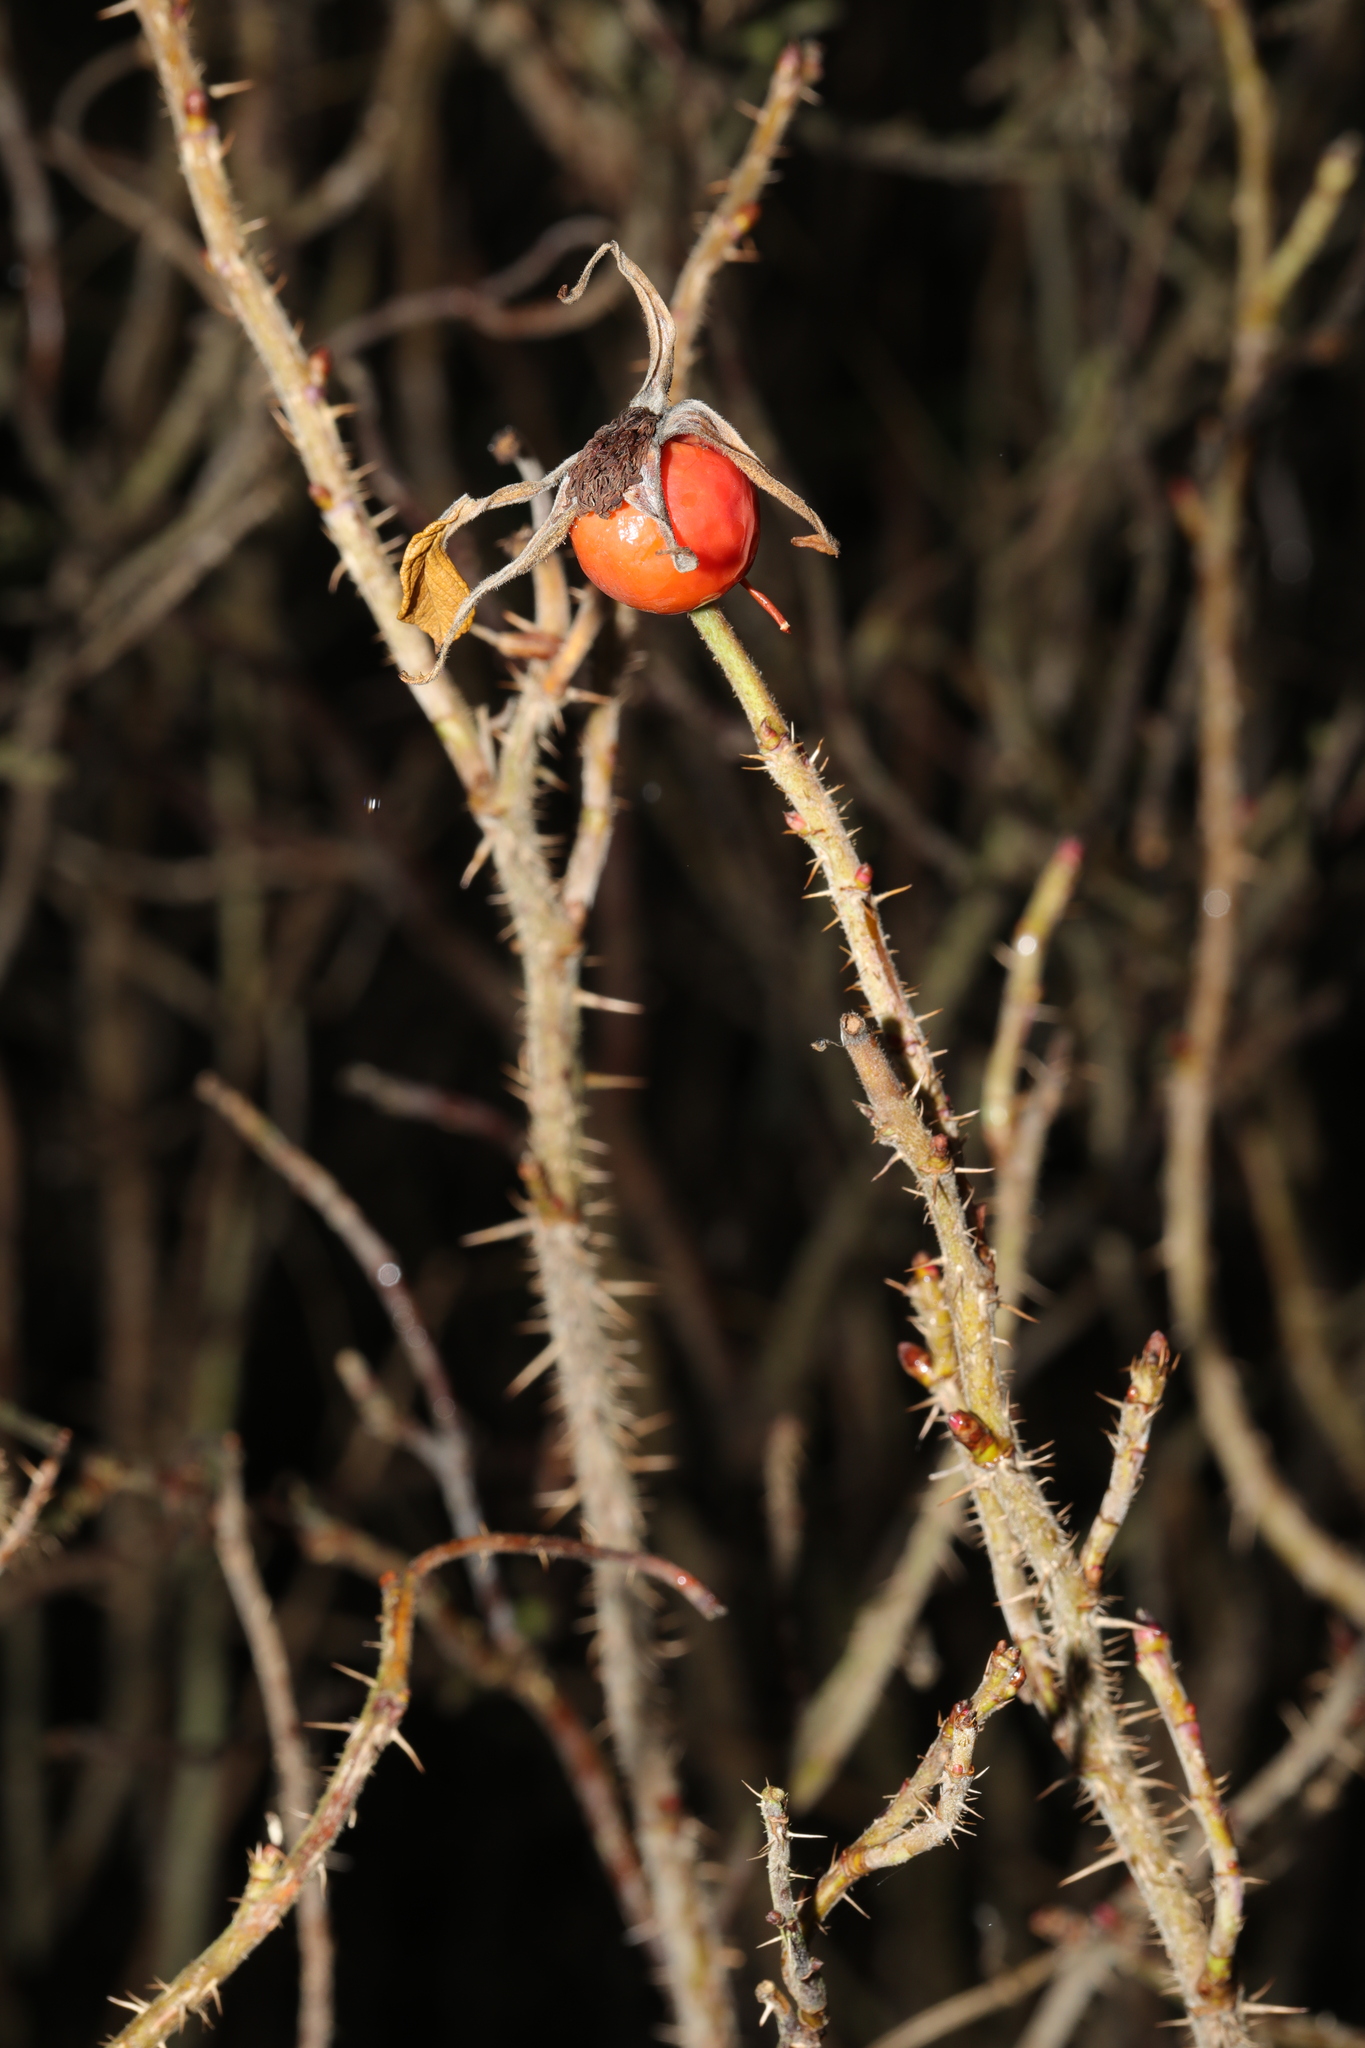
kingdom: Plantae
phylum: Tracheophyta
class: Magnoliopsida
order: Rosales
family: Rosaceae
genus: Rosa
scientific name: Rosa rugosa
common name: Japanese rose
